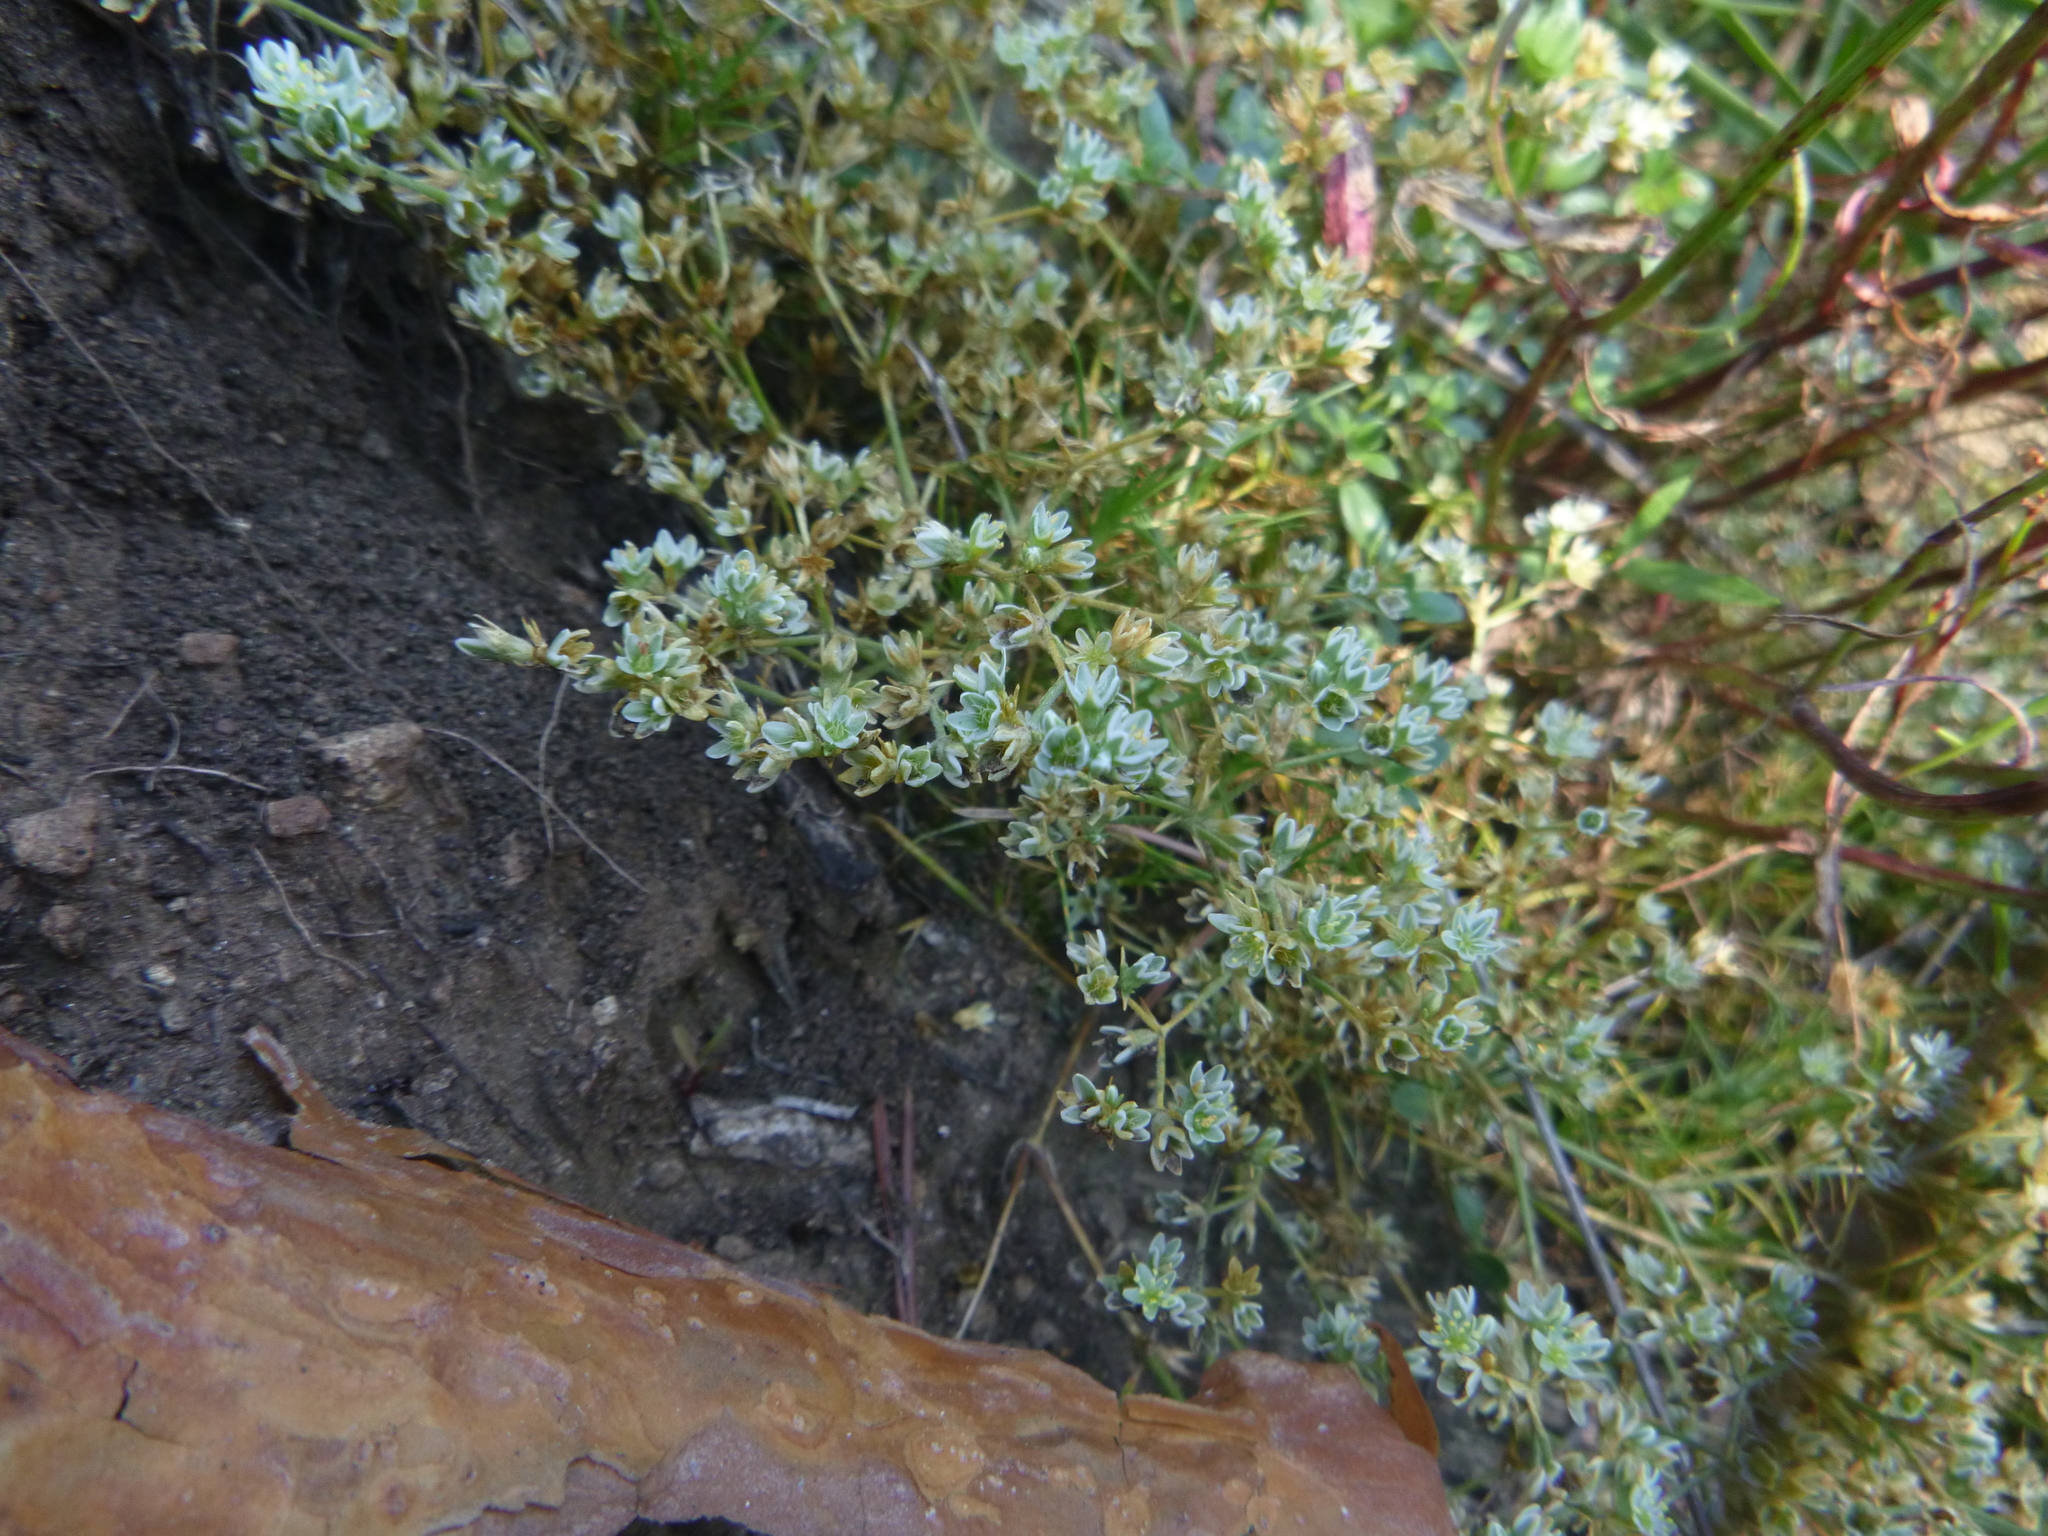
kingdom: Plantae
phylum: Tracheophyta
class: Magnoliopsida
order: Caryophyllales
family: Caryophyllaceae
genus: Scleranthus
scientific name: Scleranthus perennis
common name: Perennial knawel
